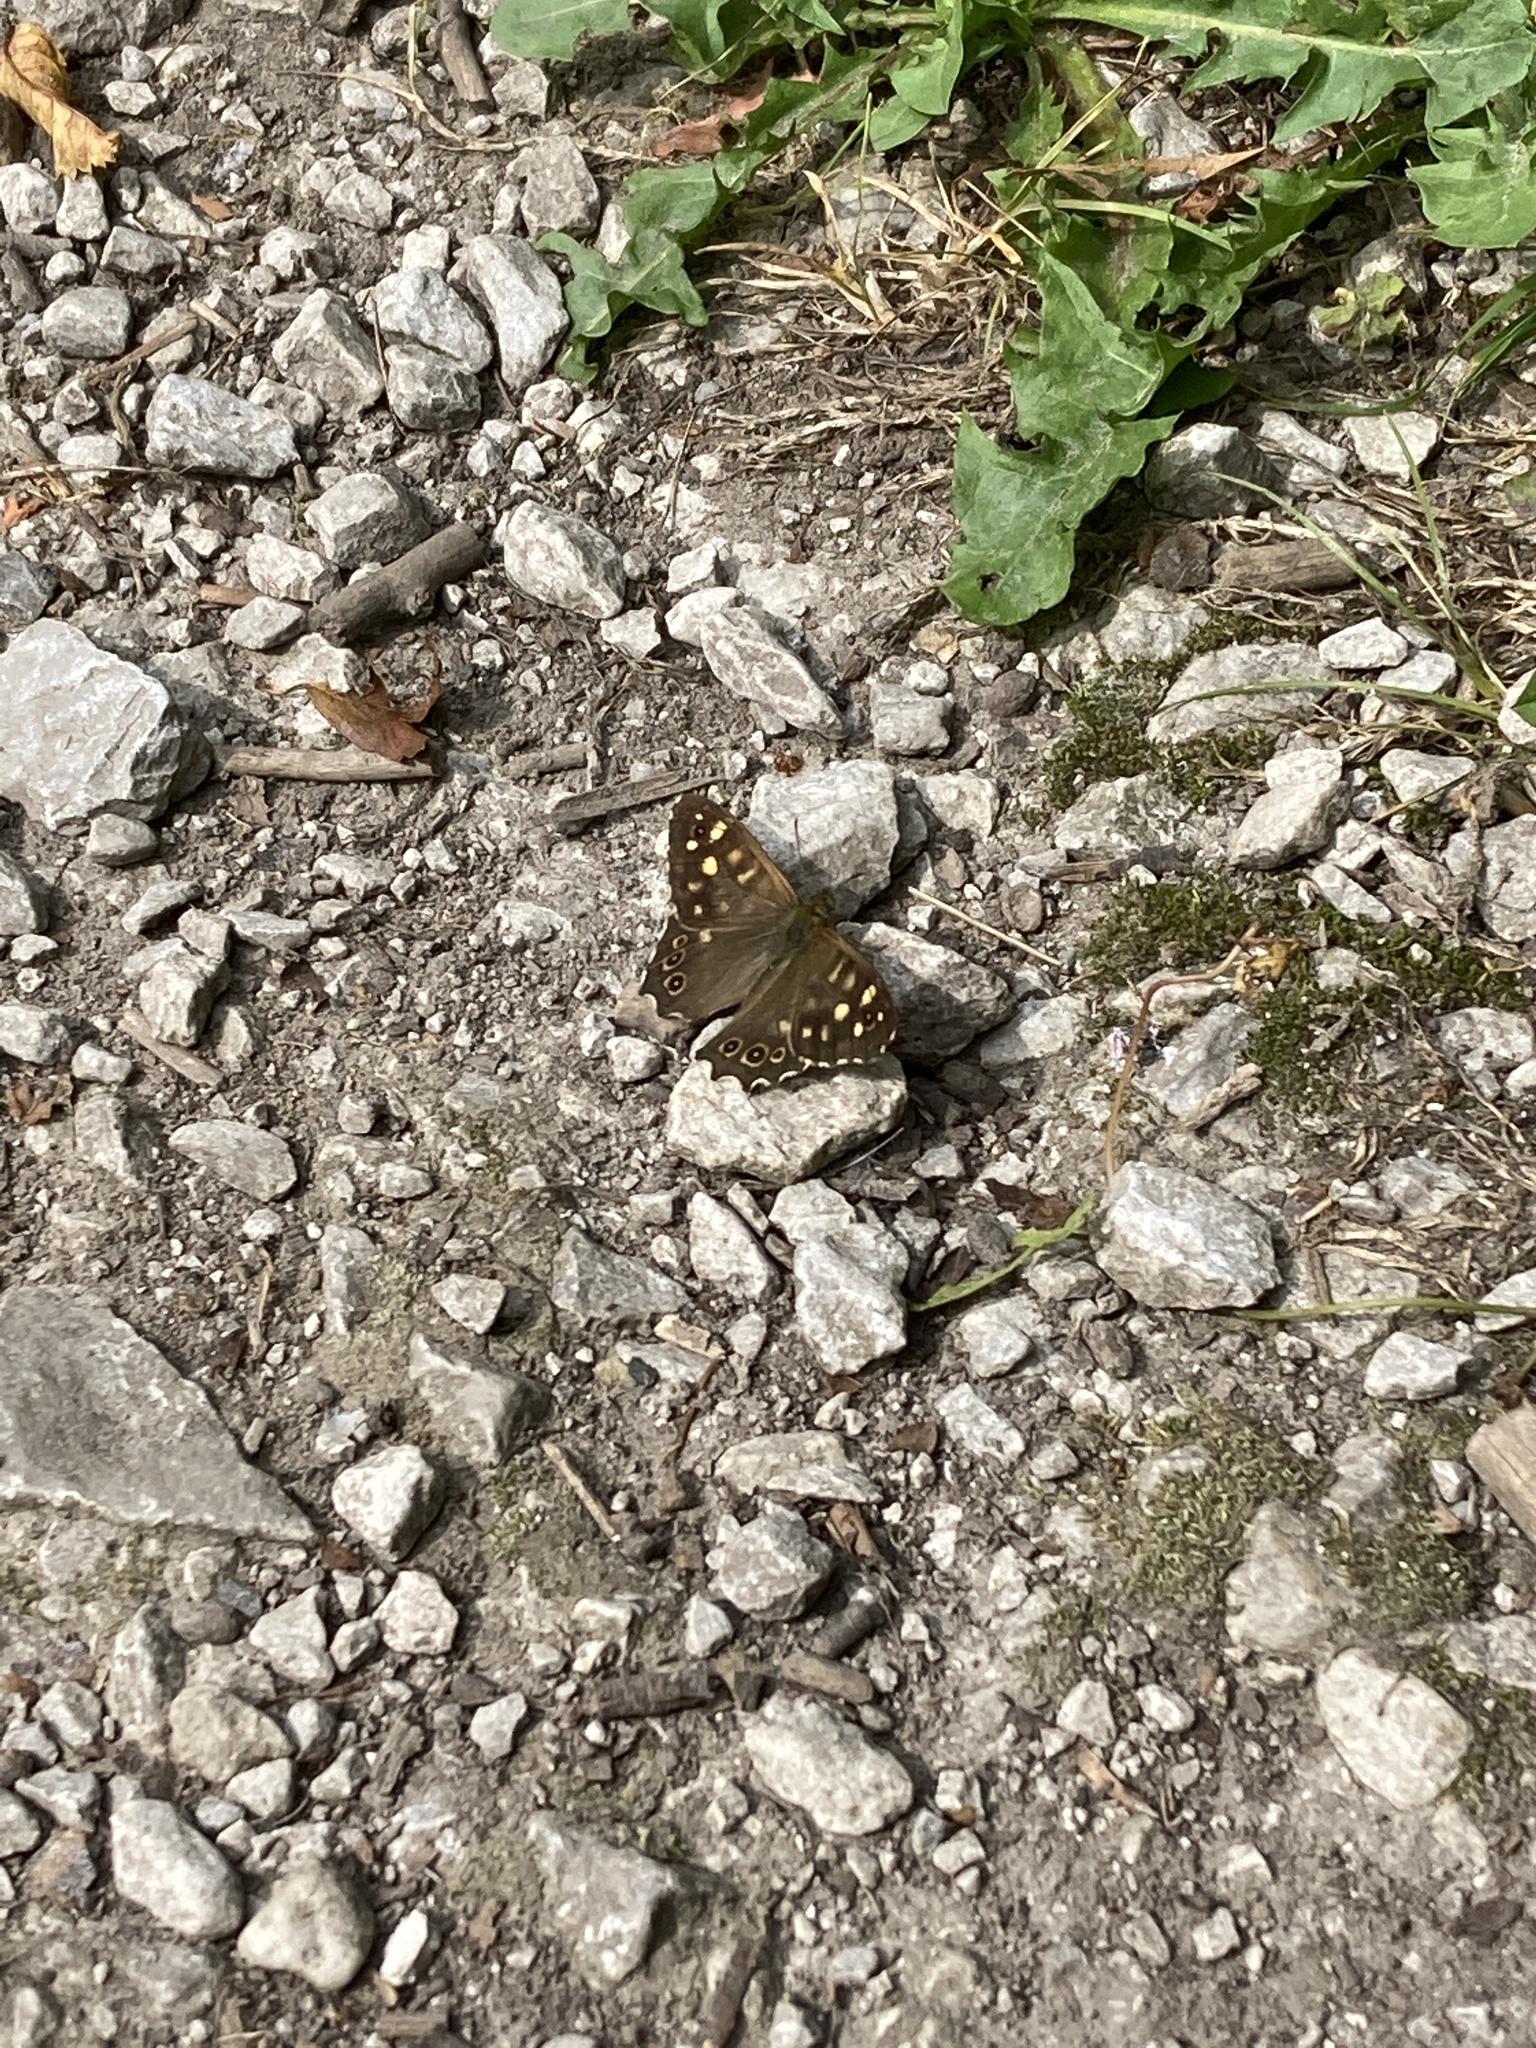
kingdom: Animalia
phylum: Arthropoda
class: Insecta
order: Lepidoptera
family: Nymphalidae
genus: Pararge
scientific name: Pararge aegeria
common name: Speckled wood
